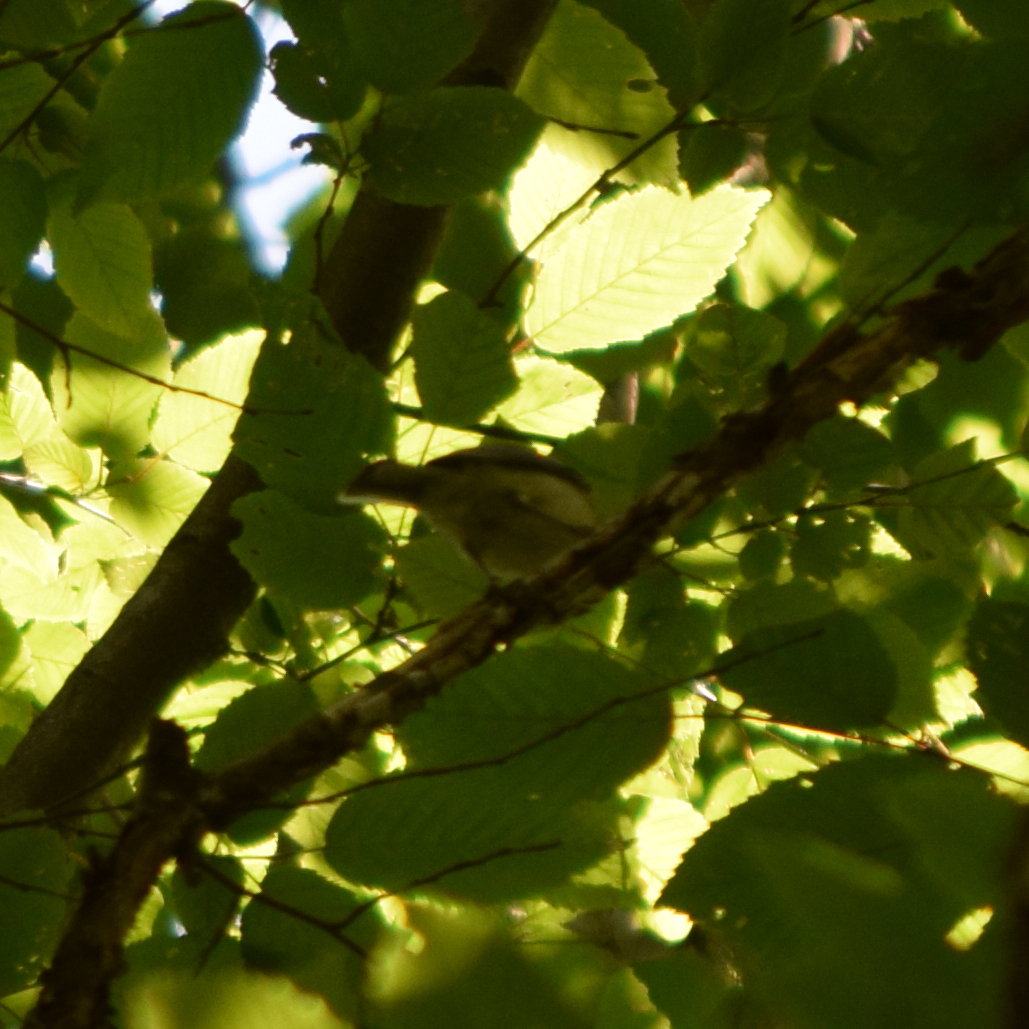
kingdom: Animalia
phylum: Chordata
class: Aves
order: Passeriformes
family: Paridae
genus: Parus
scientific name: Parus major
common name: Great tit
